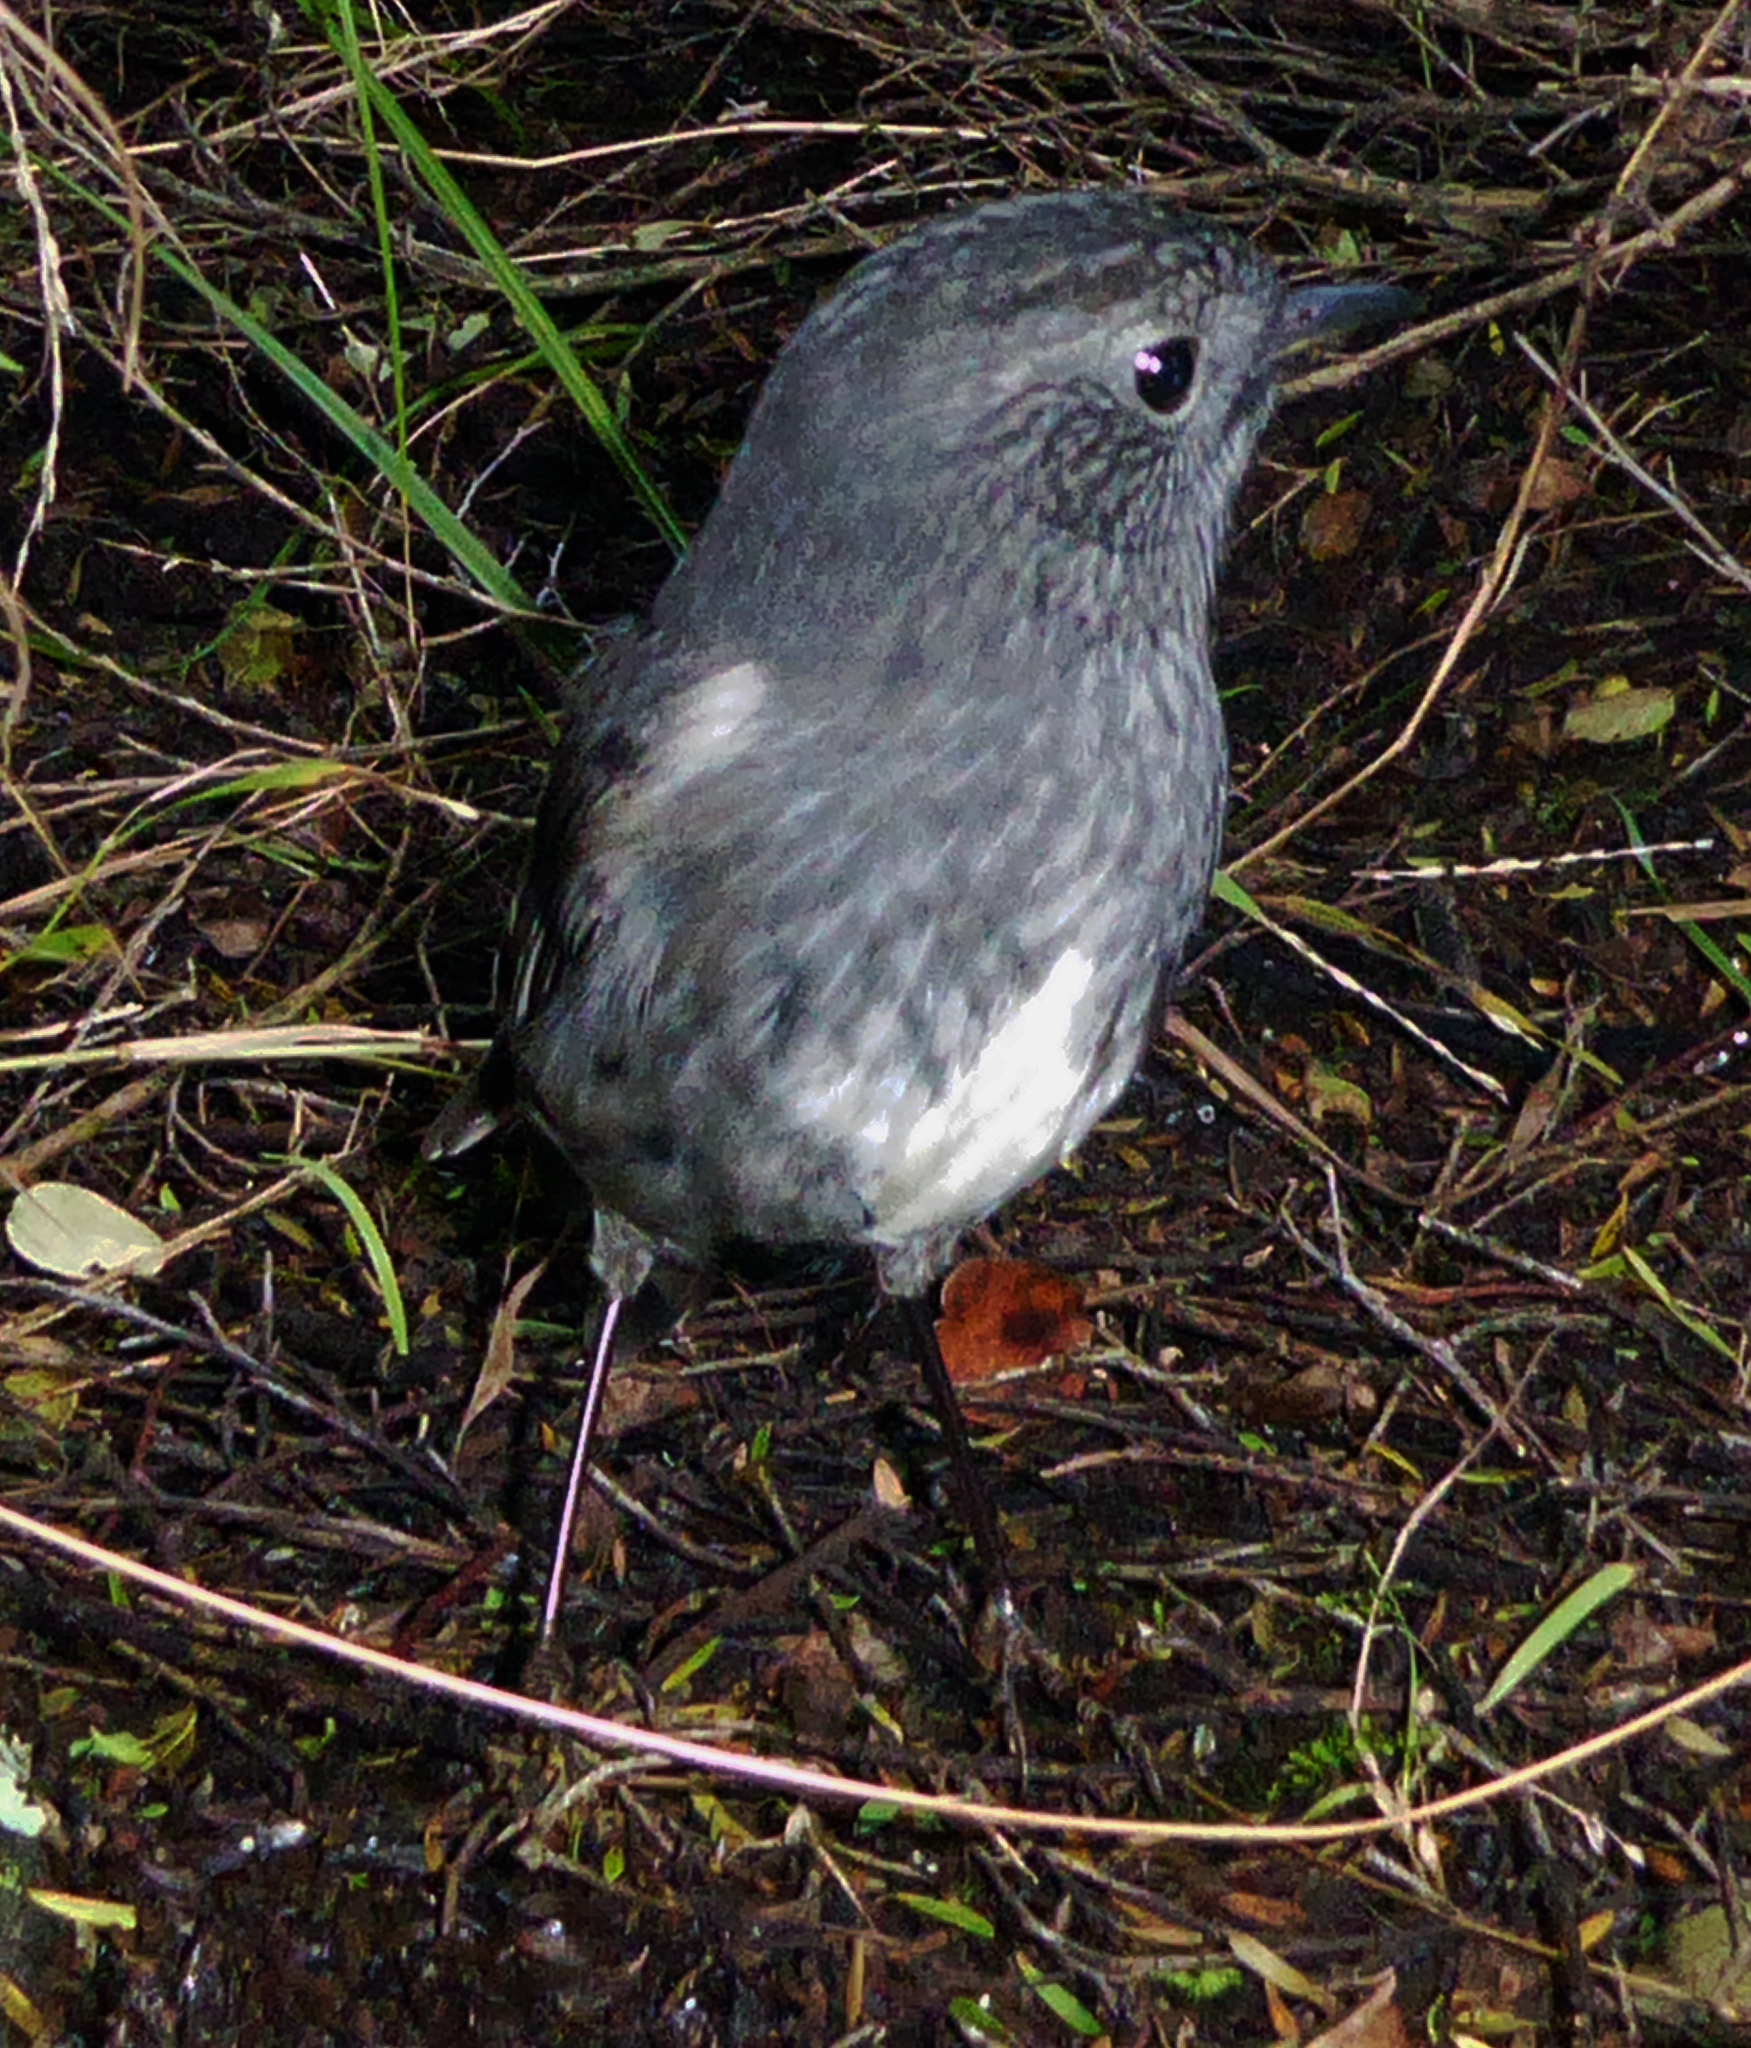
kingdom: Animalia
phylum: Chordata
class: Aves
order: Passeriformes
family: Petroicidae
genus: Petroica
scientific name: Petroica australis
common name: New zealand robin
